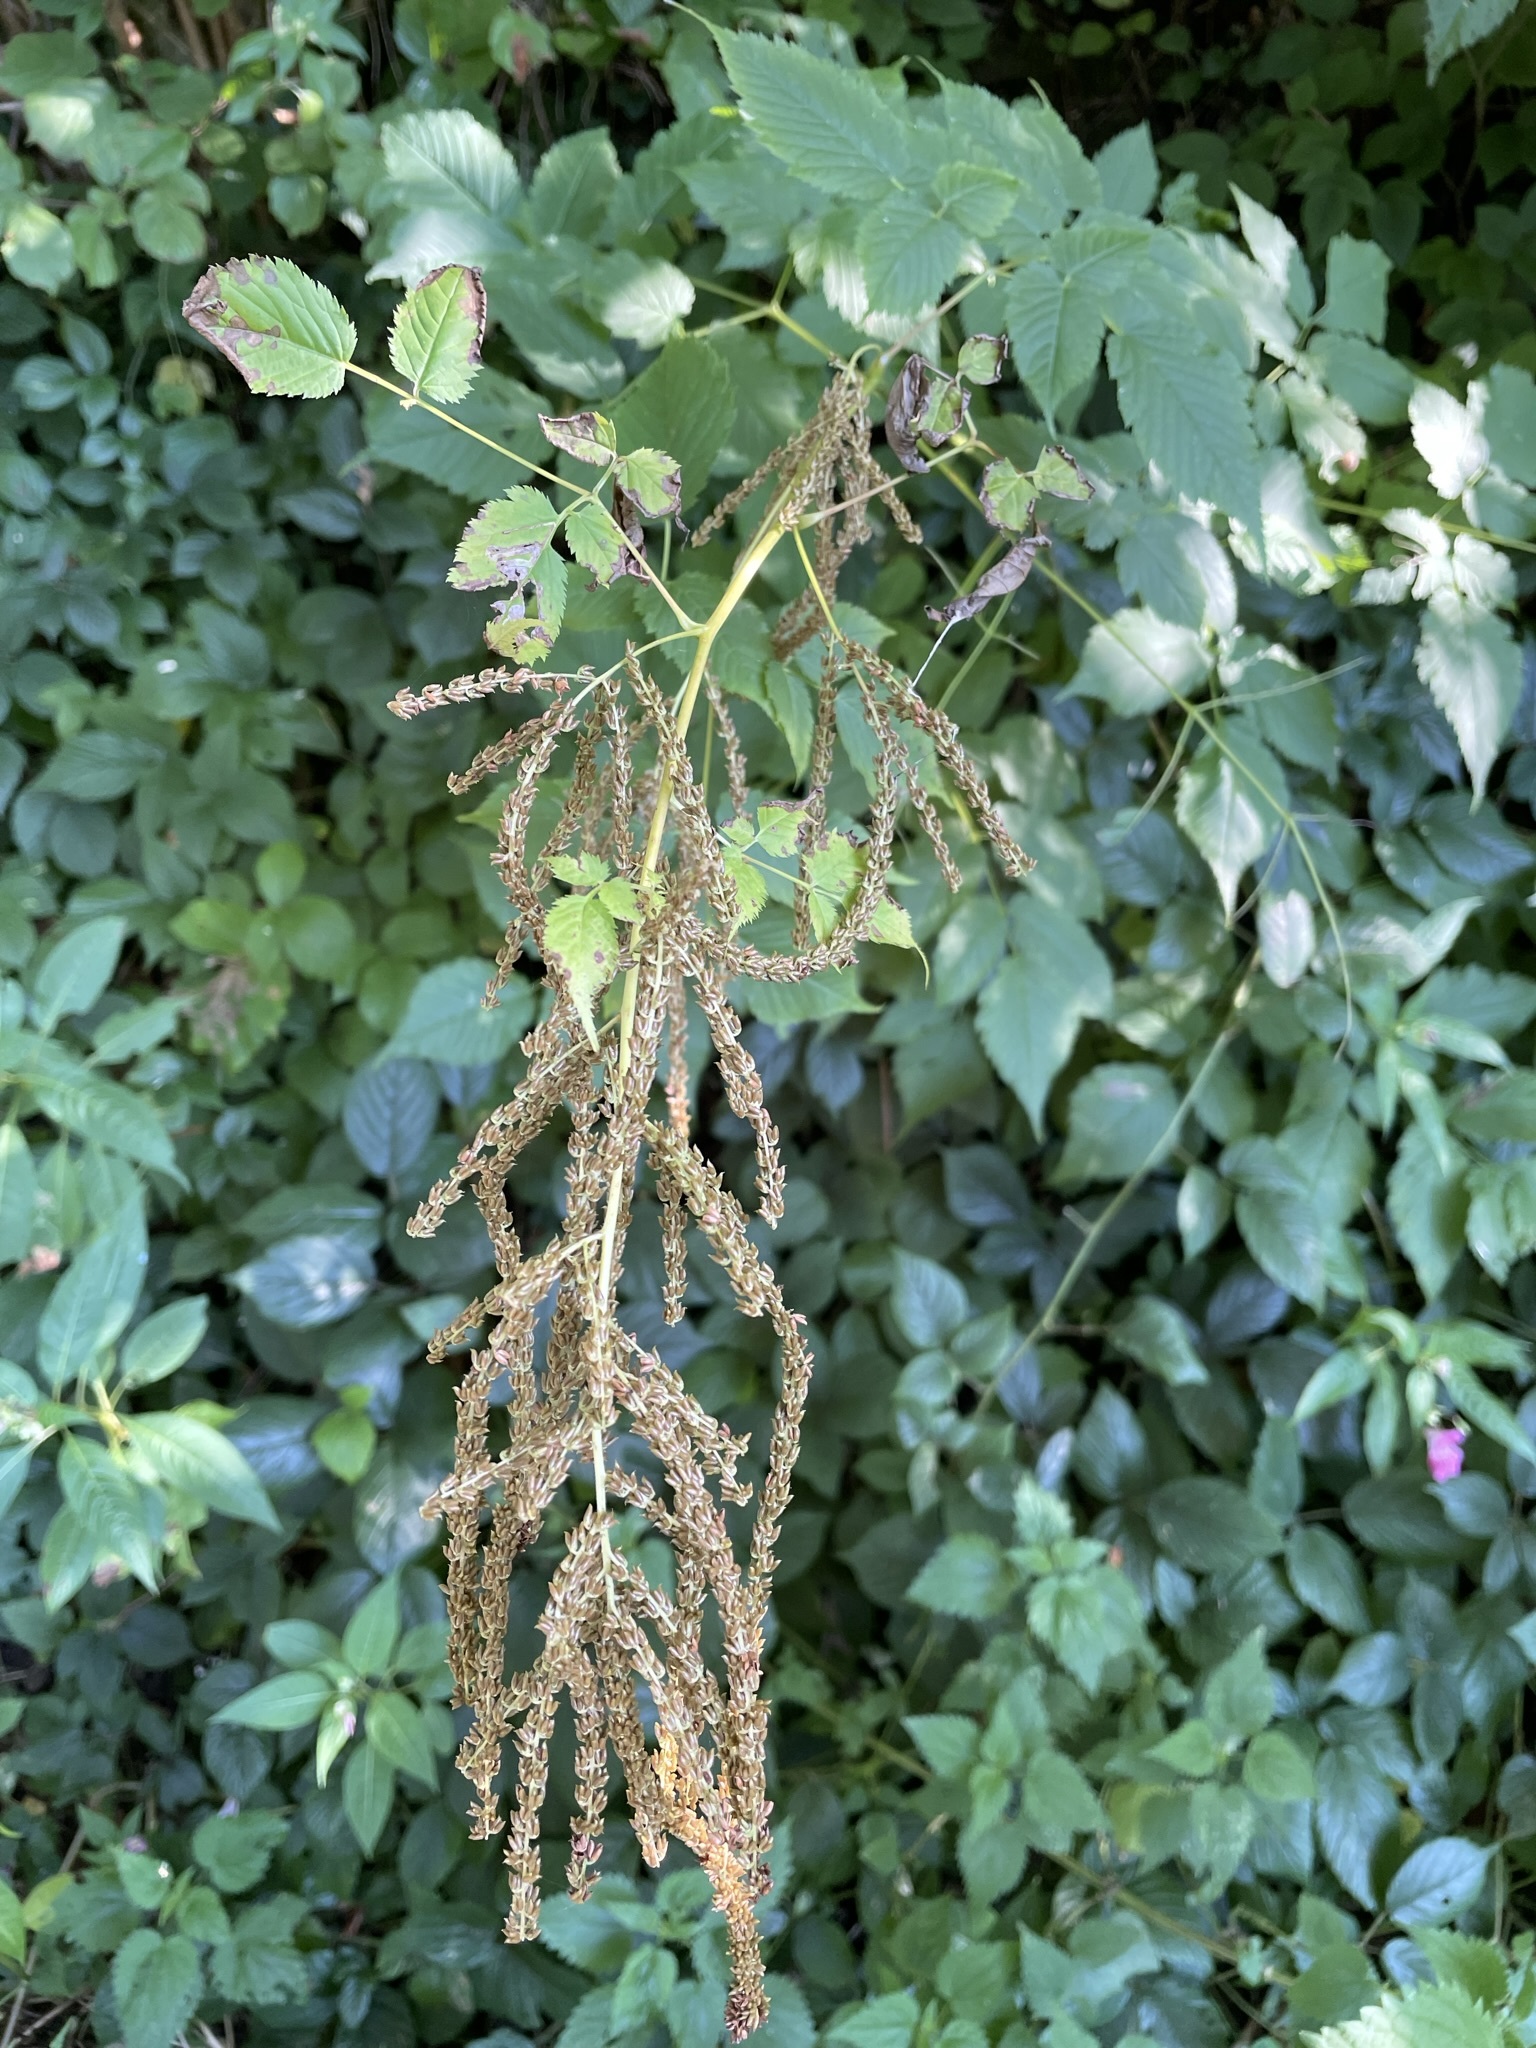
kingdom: Plantae
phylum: Tracheophyta
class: Magnoliopsida
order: Rosales
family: Rosaceae
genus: Aruncus
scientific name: Aruncus dioicus
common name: Buck's-beard
